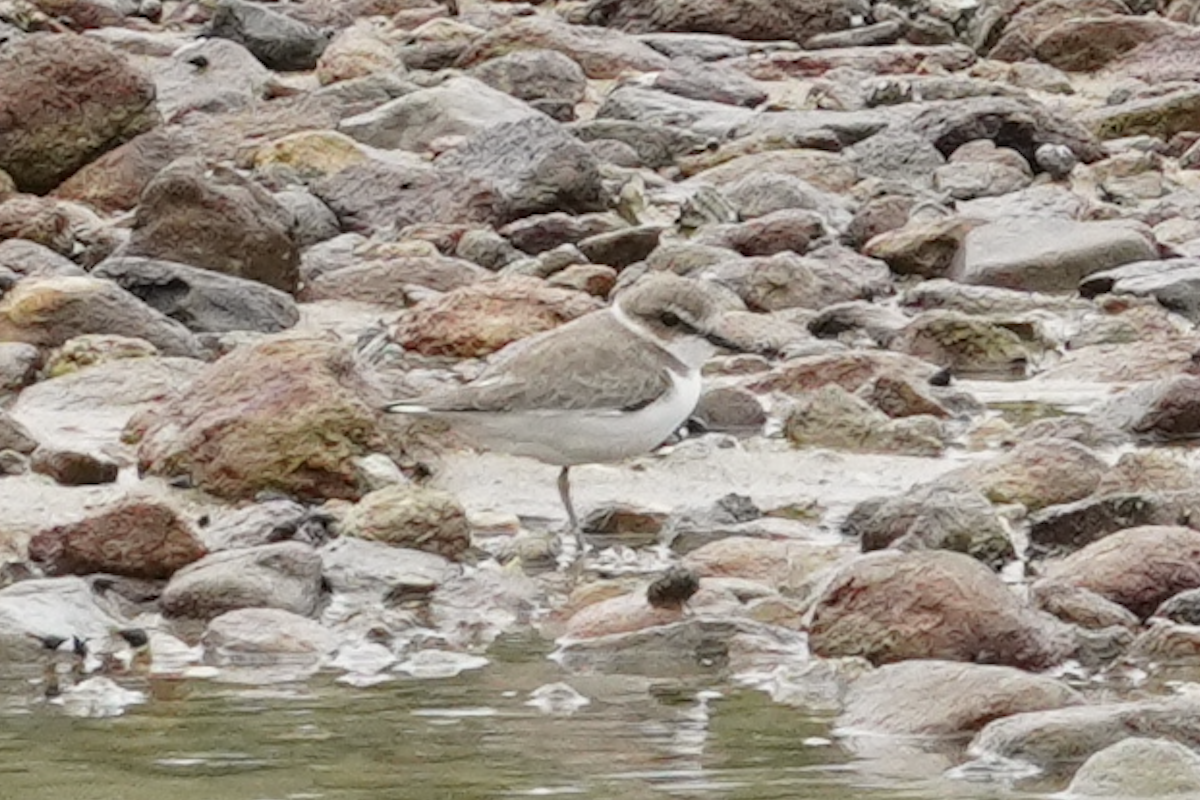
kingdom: Animalia
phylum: Chordata
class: Aves
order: Charadriiformes
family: Charadriidae
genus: Charadrius
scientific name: Charadrius alexandrinus
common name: Kentish plover
